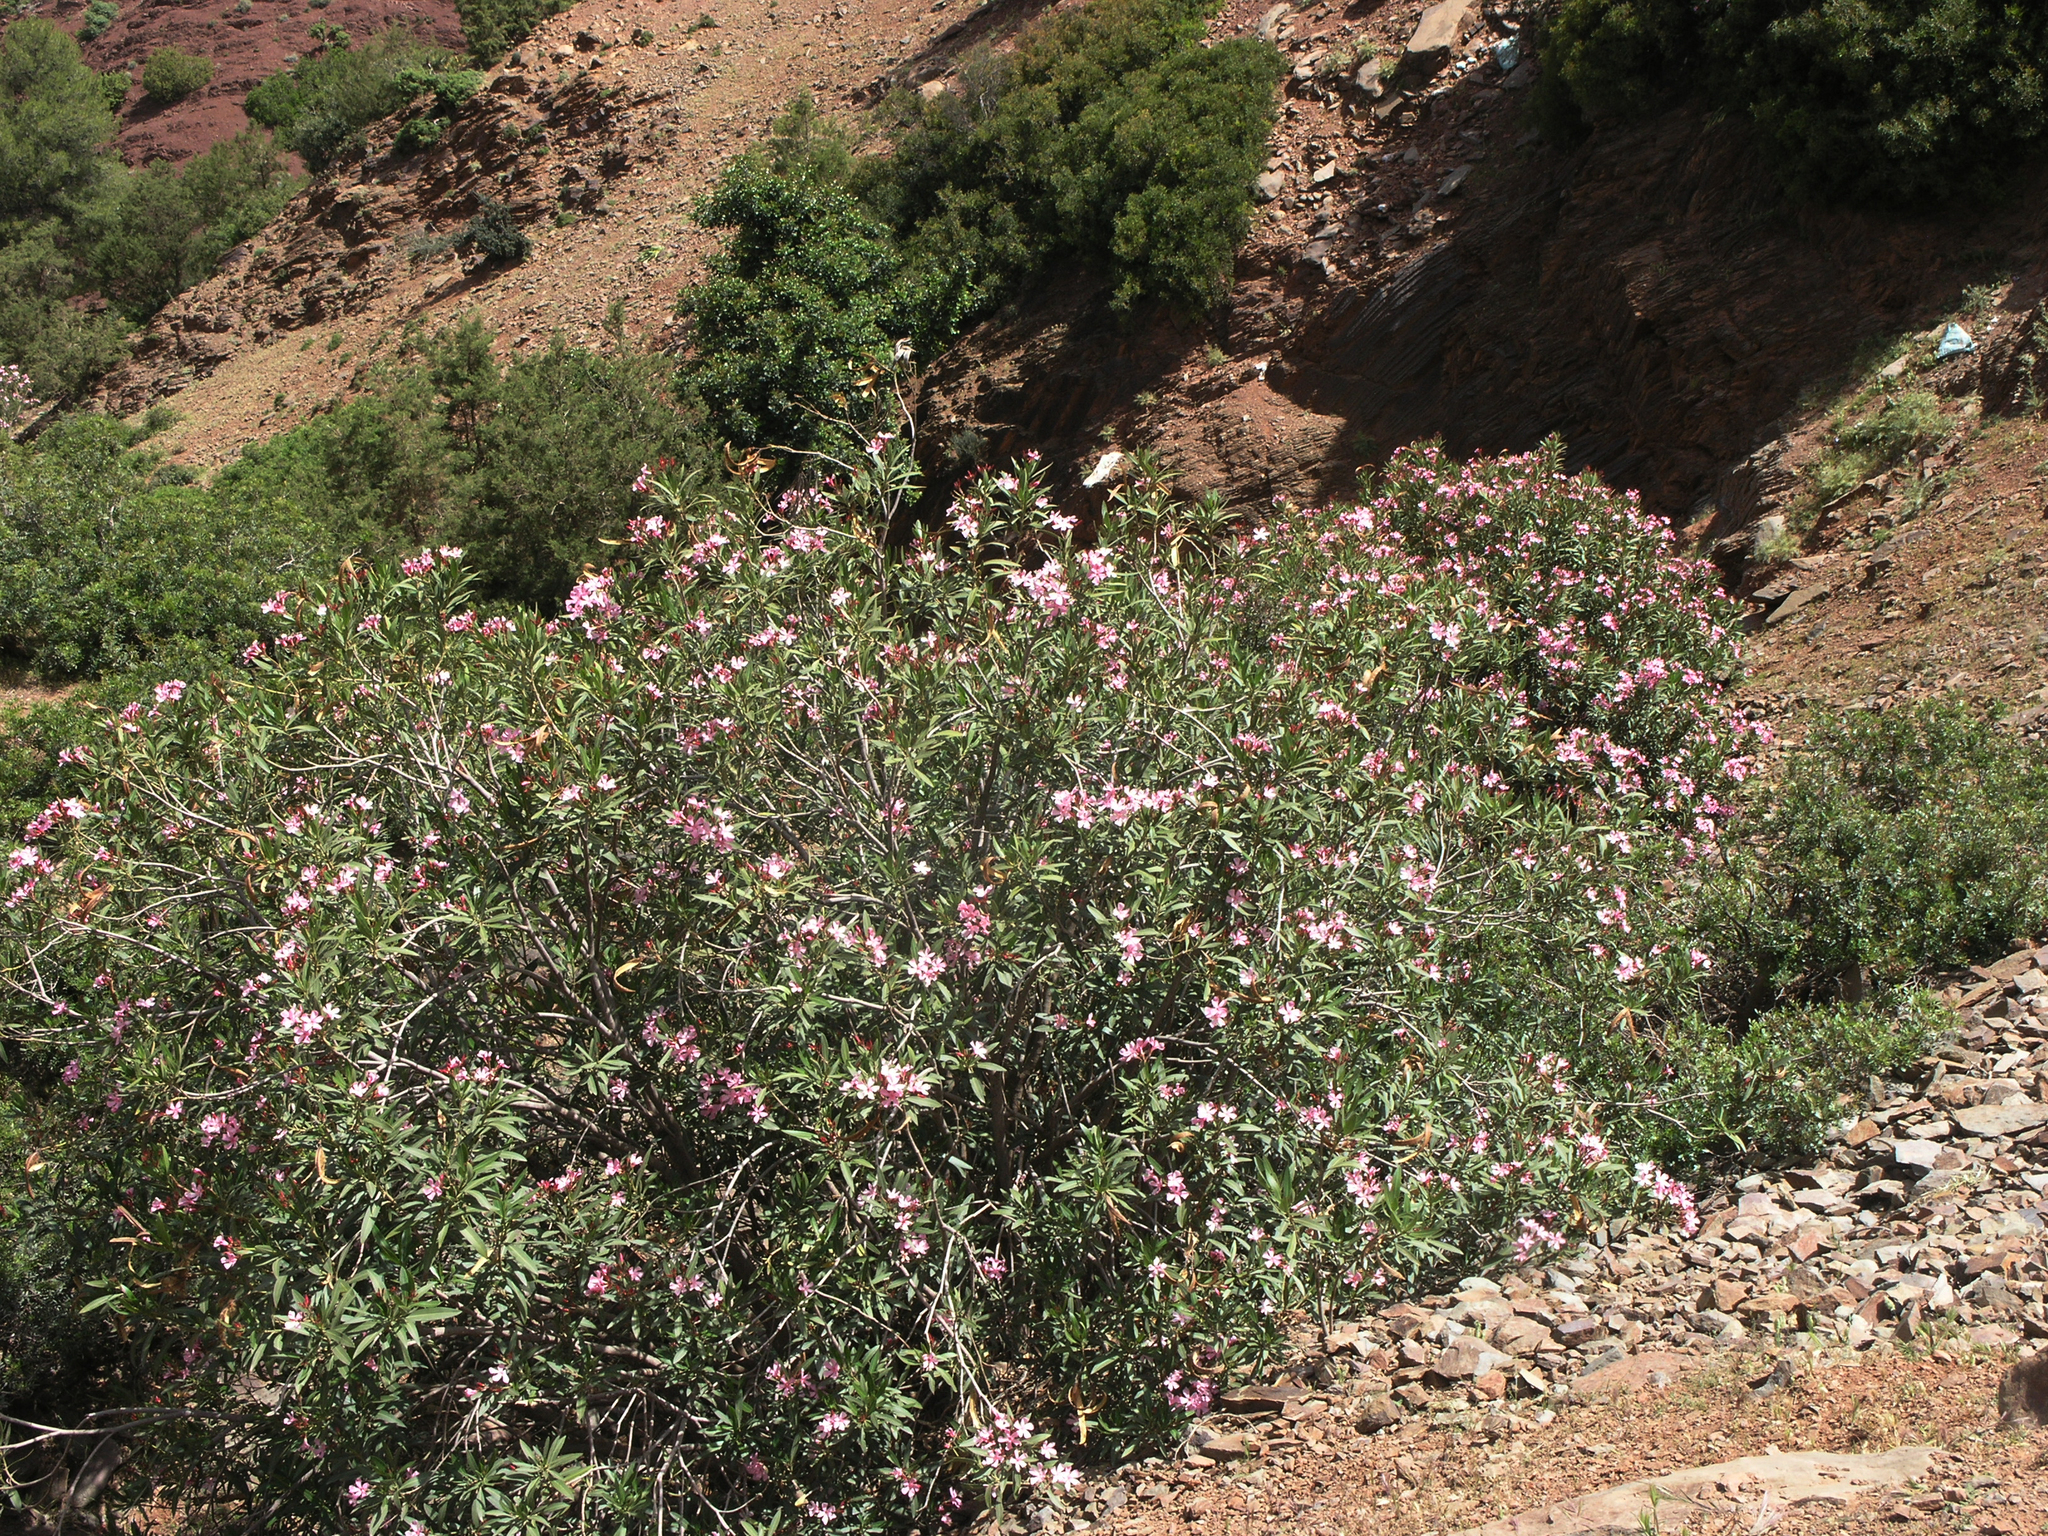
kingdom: Plantae
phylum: Tracheophyta
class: Magnoliopsida
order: Gentianales
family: Apocynaceae
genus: Nerium
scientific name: Nerium oleander
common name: Oleander
